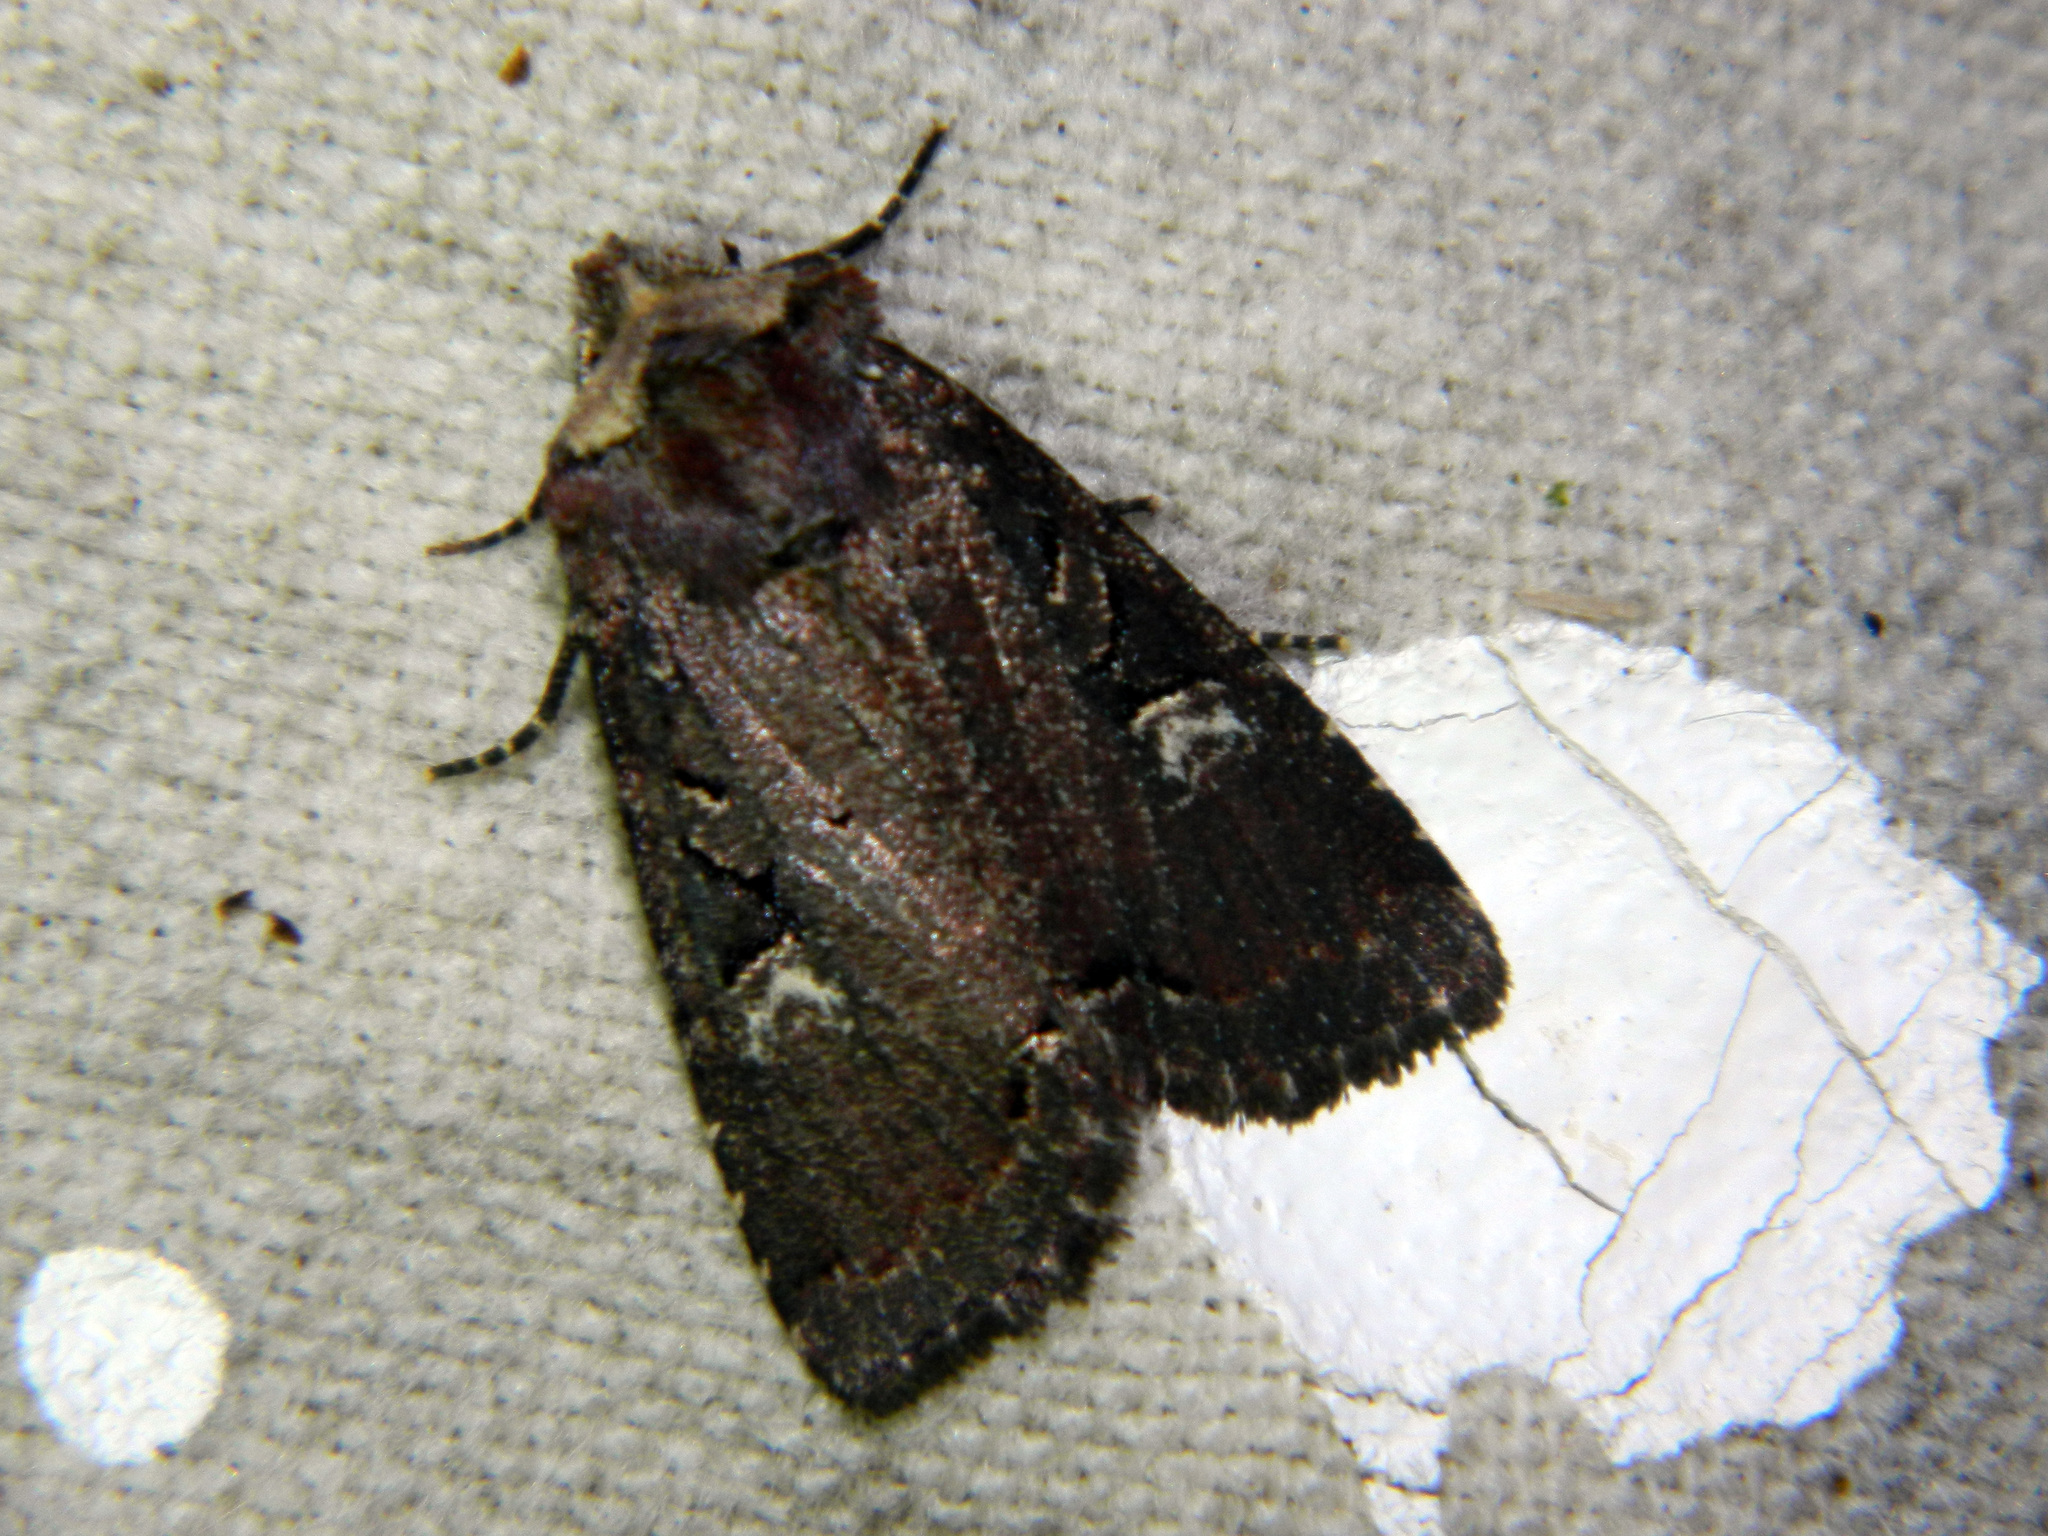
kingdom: Animalia
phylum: Arthropoda
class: Insecta
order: Lepidoptera
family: Noctuidae
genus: Hillia
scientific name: Hillia iris
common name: Iris rover moth
